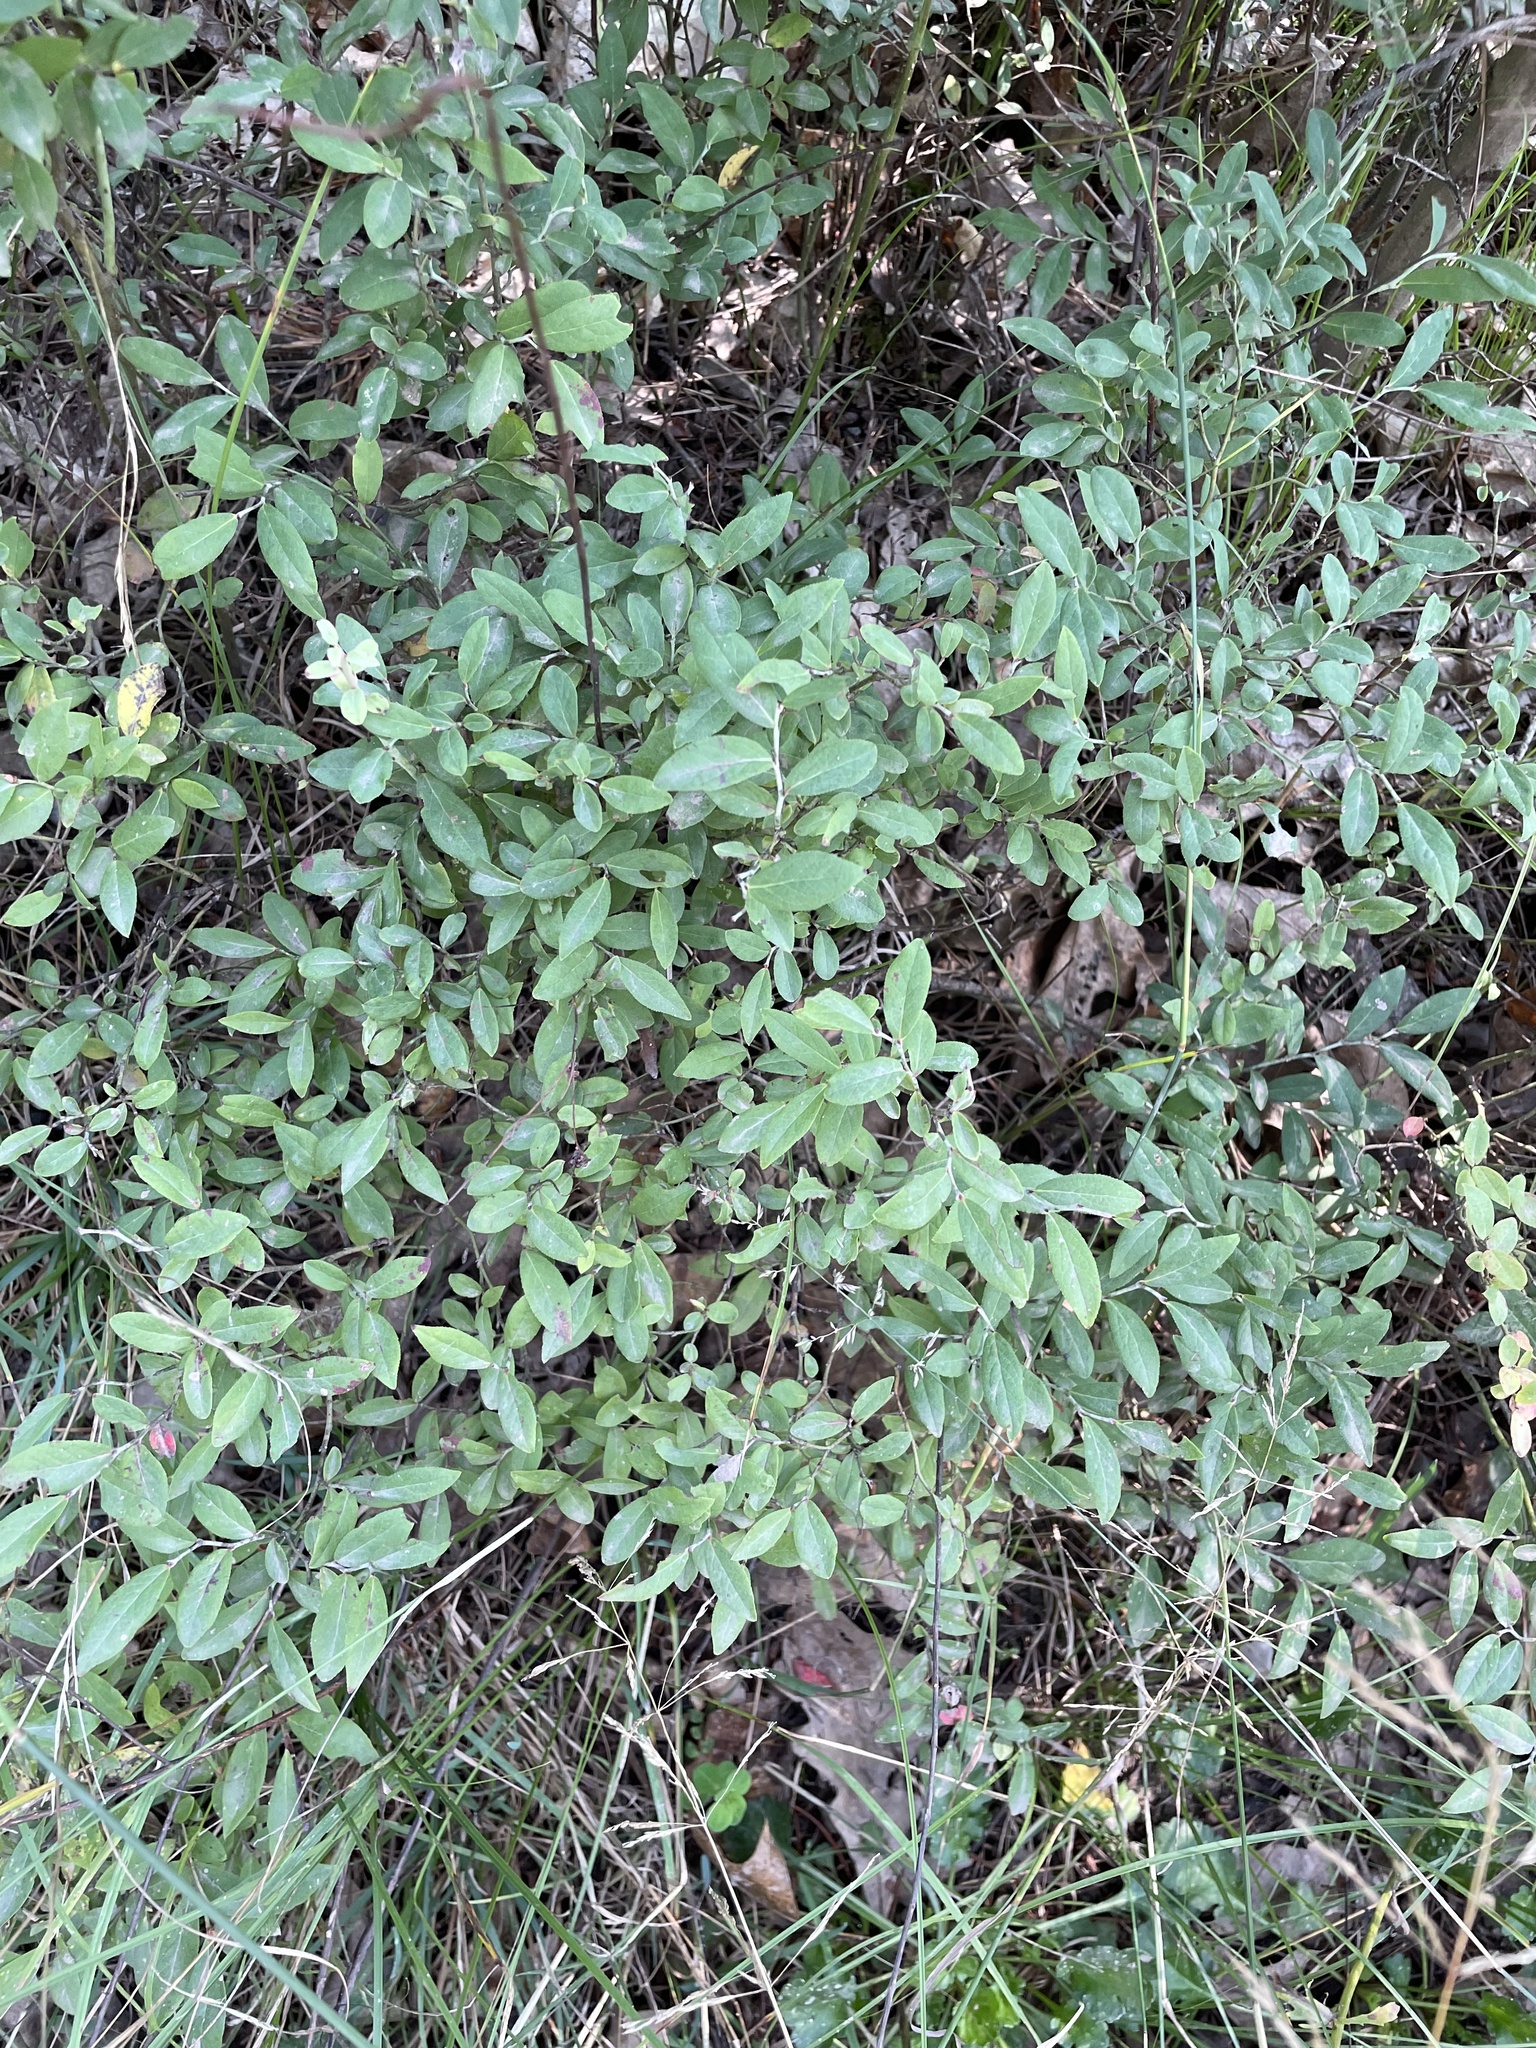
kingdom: Plantae
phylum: Tracheophyta
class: Magnoliopsida
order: Ericales
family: Ericaceae
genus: Vaccinium
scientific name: Vaccinium angustifolium
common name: Early lowbush blueberry
